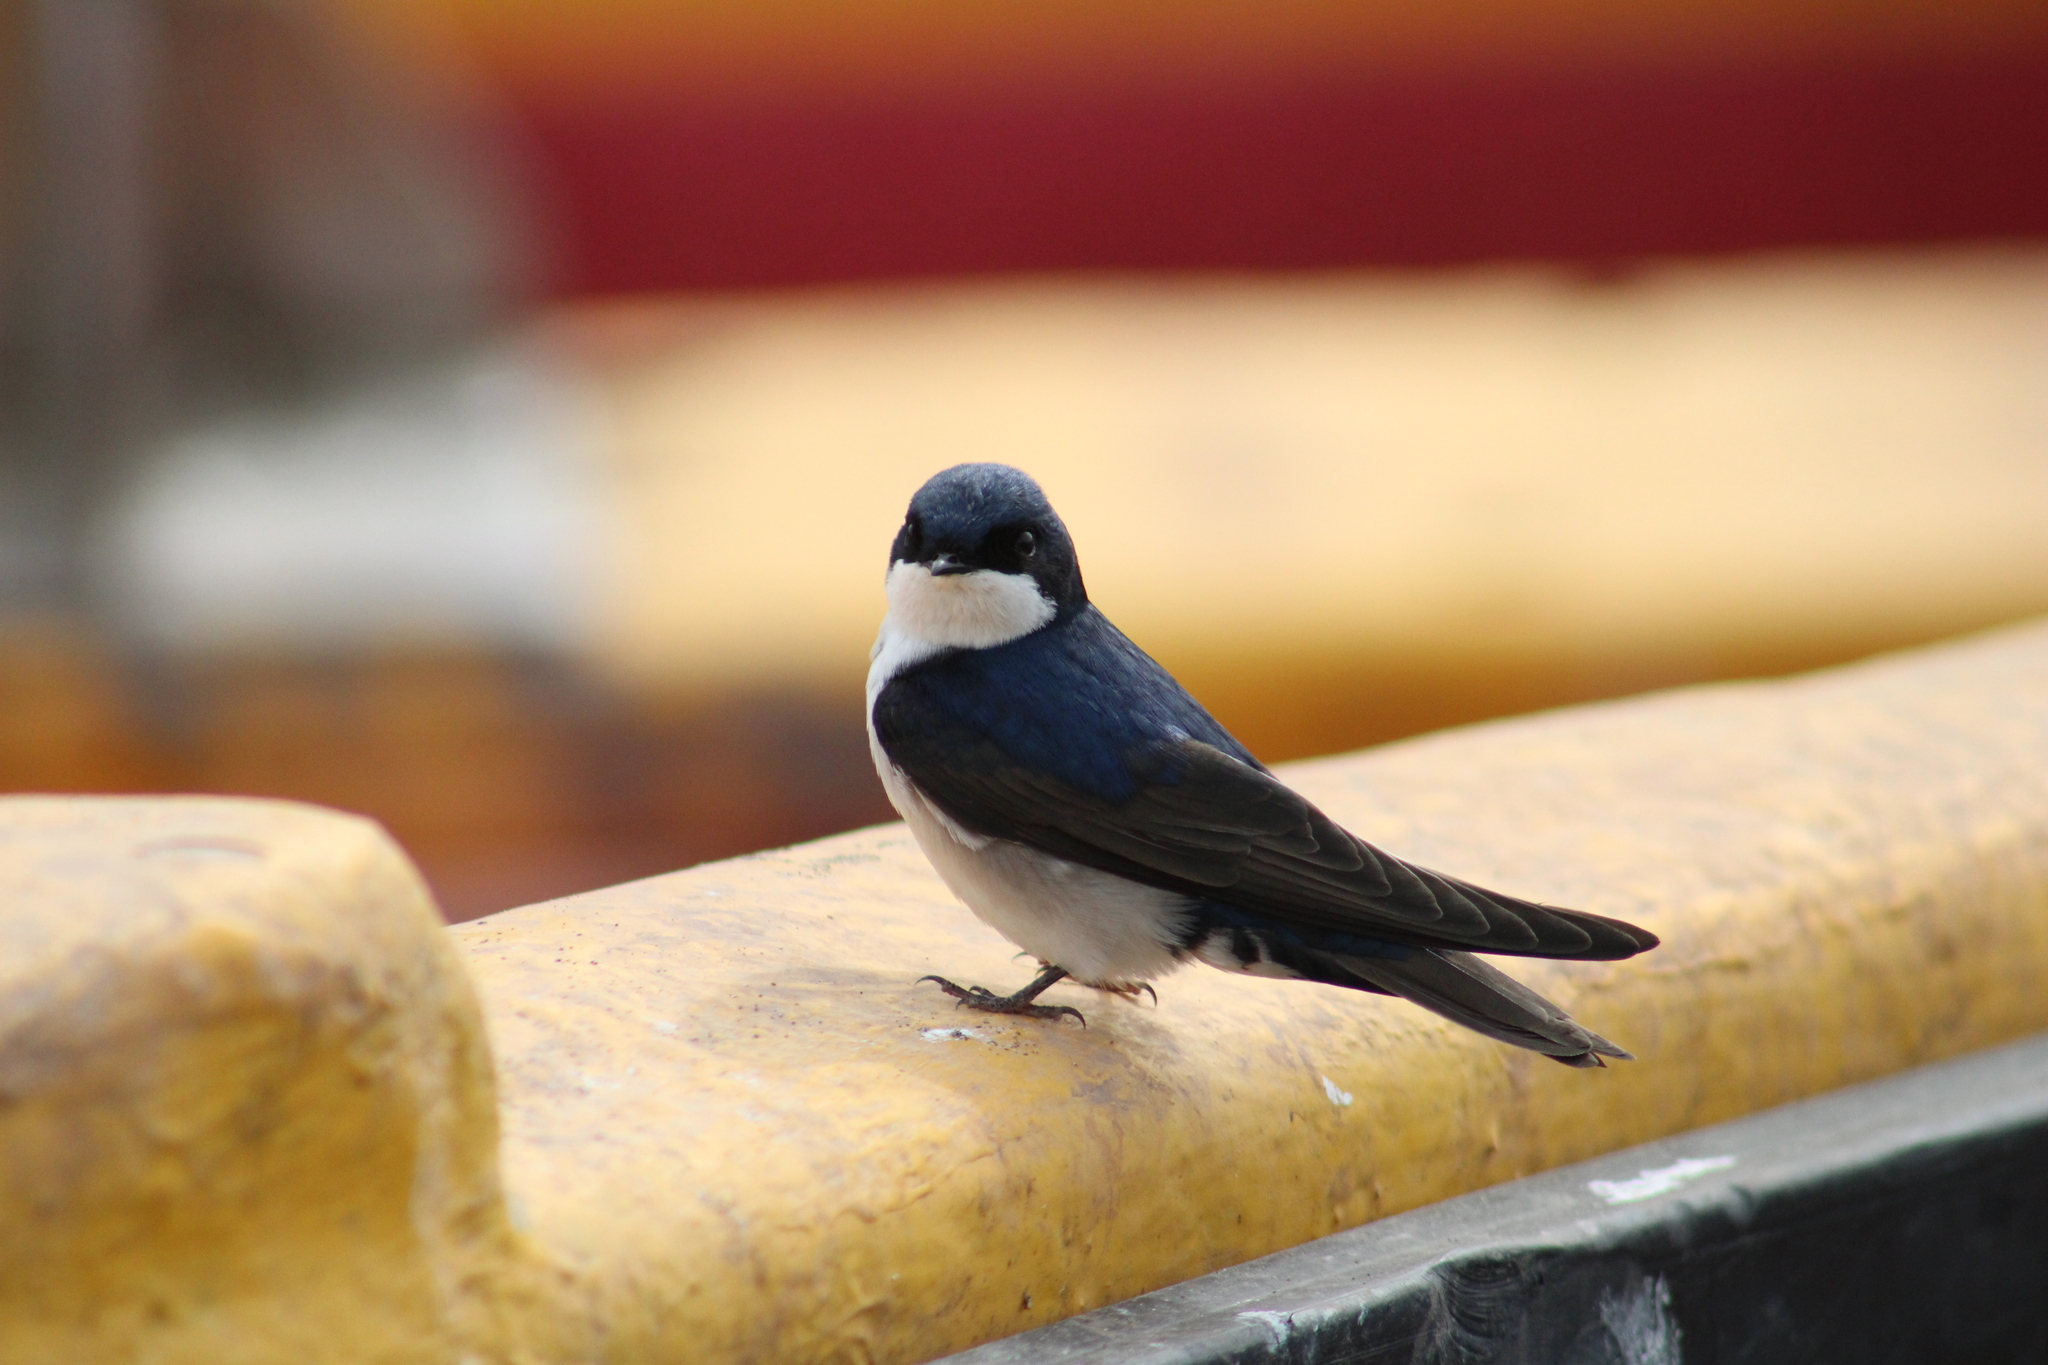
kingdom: Animalia
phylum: Chordata
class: Aves
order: Passeriformes
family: Hirundinidae
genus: Notiochelidon
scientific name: Notiochelidon cyanoleuca
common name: Blue-and-white swallow
